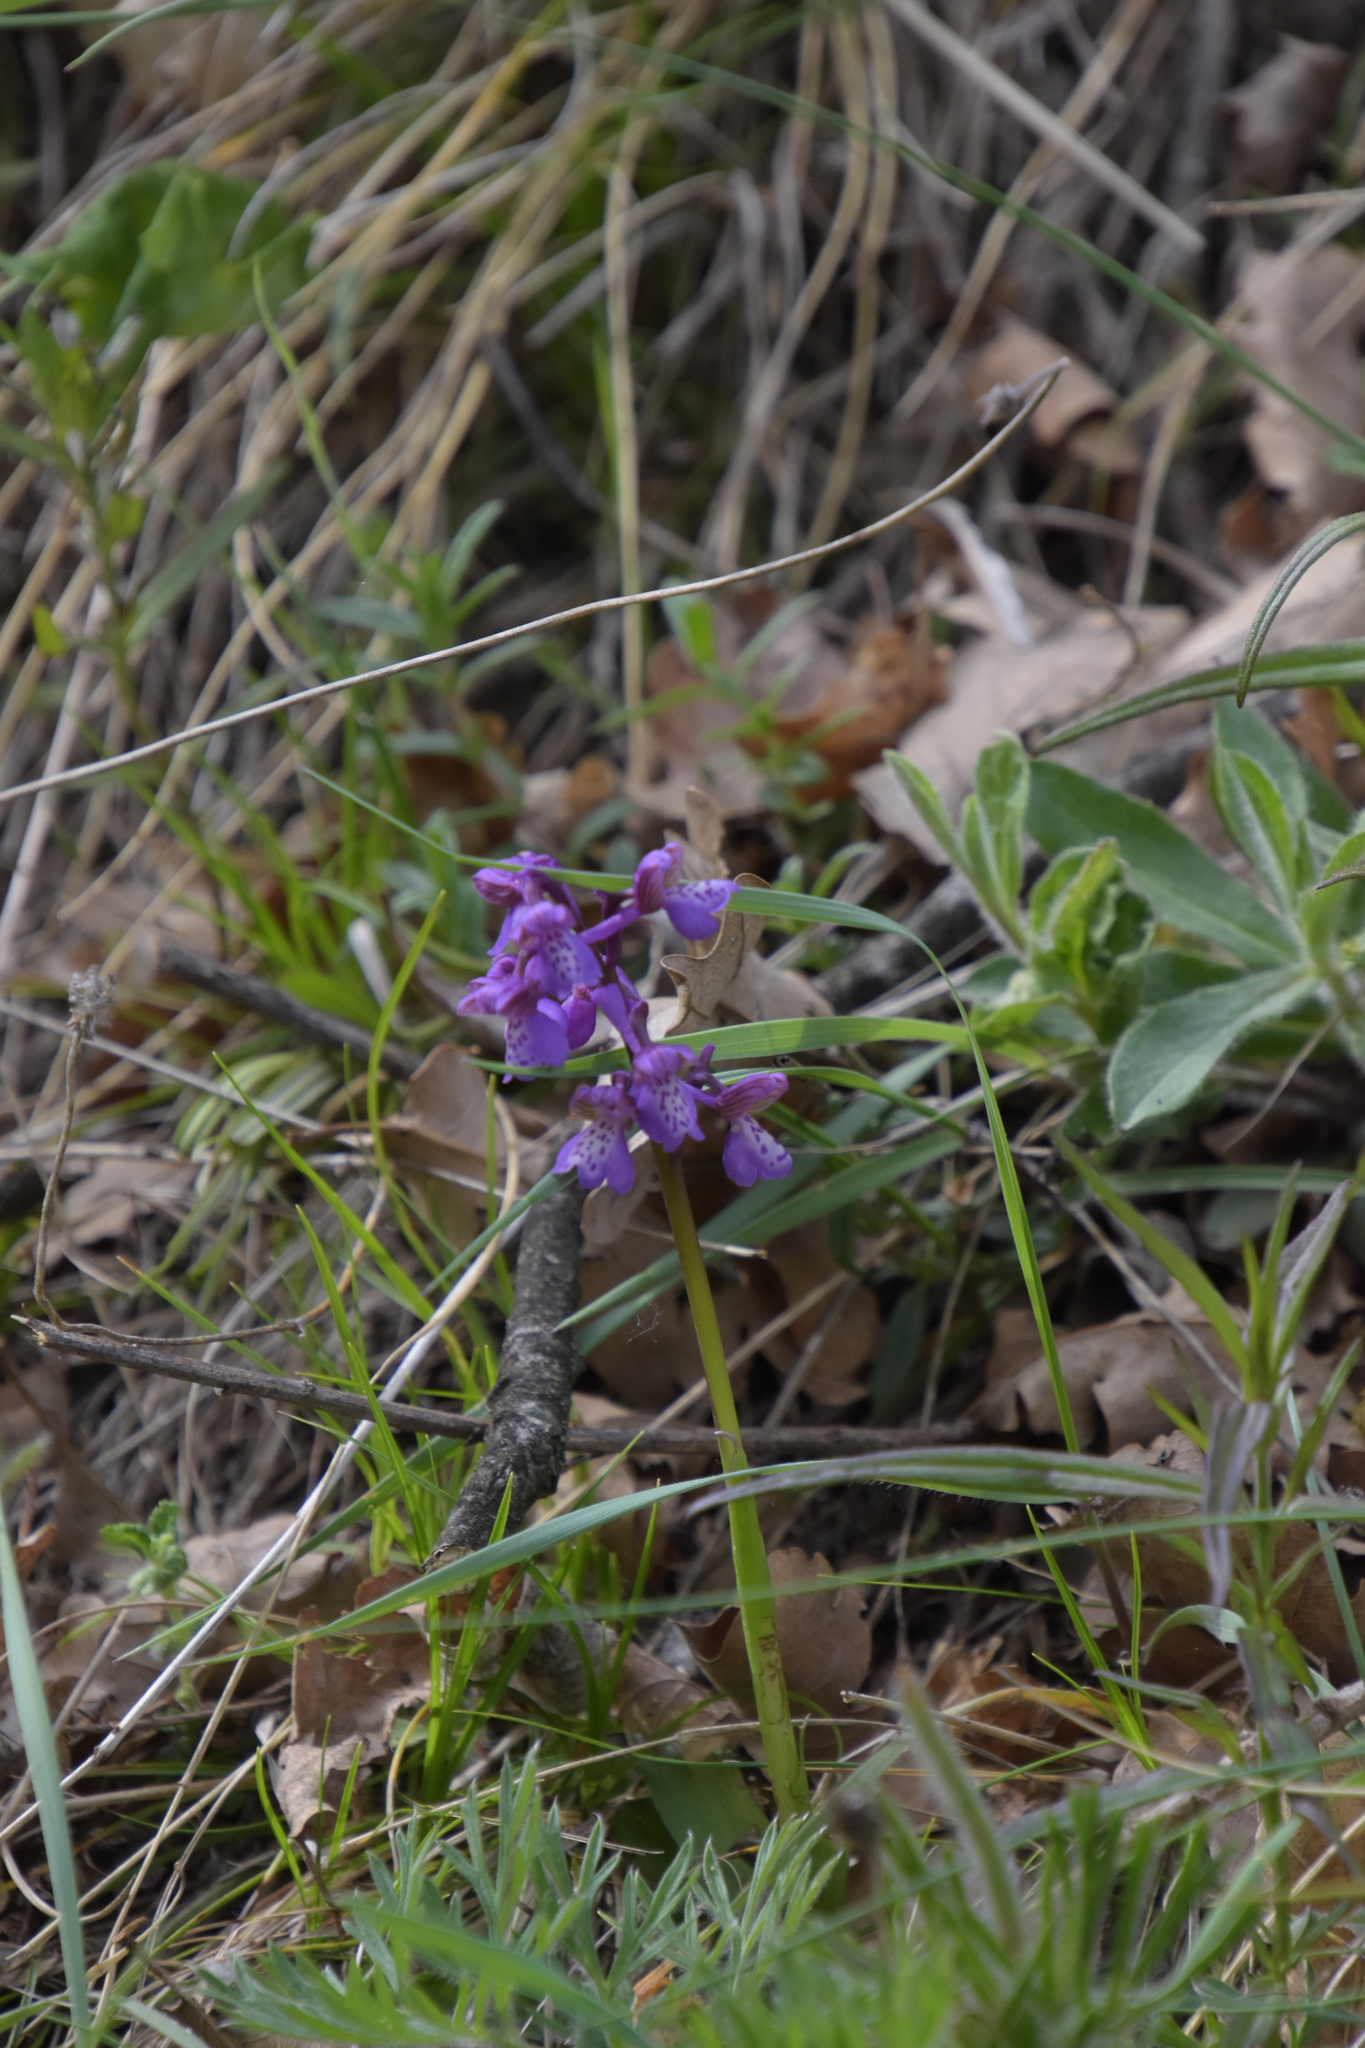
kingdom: Plantae
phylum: Tracheophyta
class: Liliopsida
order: Asparagales
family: Orchidaceae
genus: Anacamptis
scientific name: Anacamptis morio
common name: Green-winged orchid
